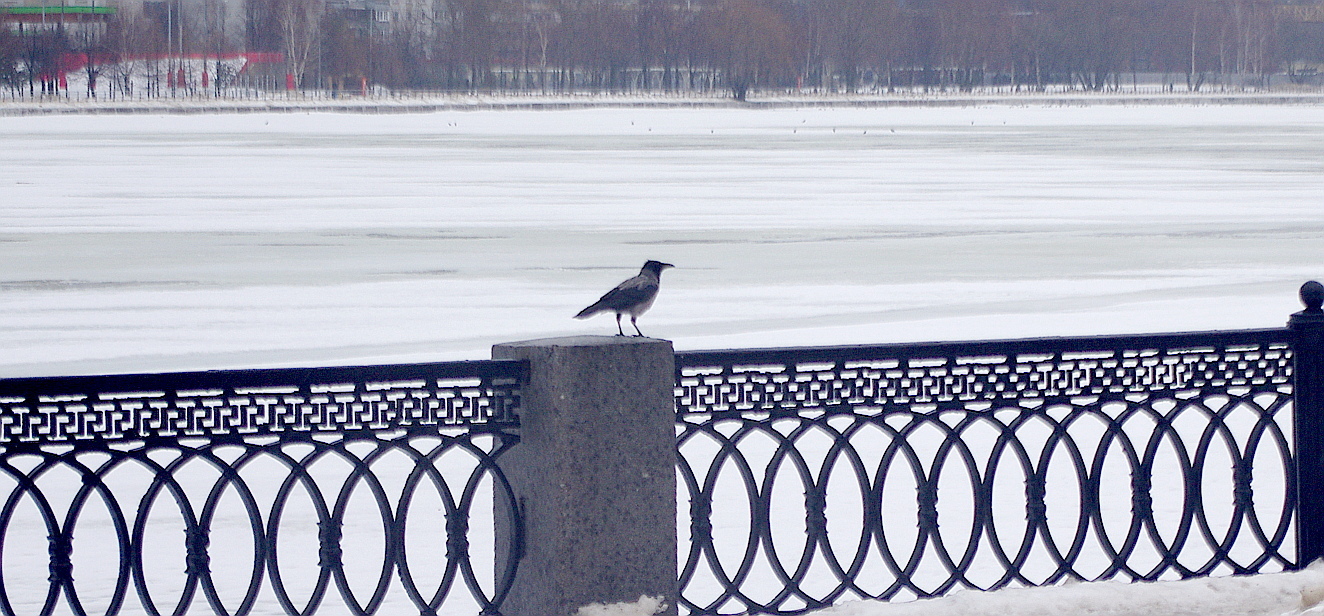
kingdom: Animalia
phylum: Chordata
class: Aves
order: Passeriformes
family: Corvidae
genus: Corvus
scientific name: Corvus cornix
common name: Hooded crow
